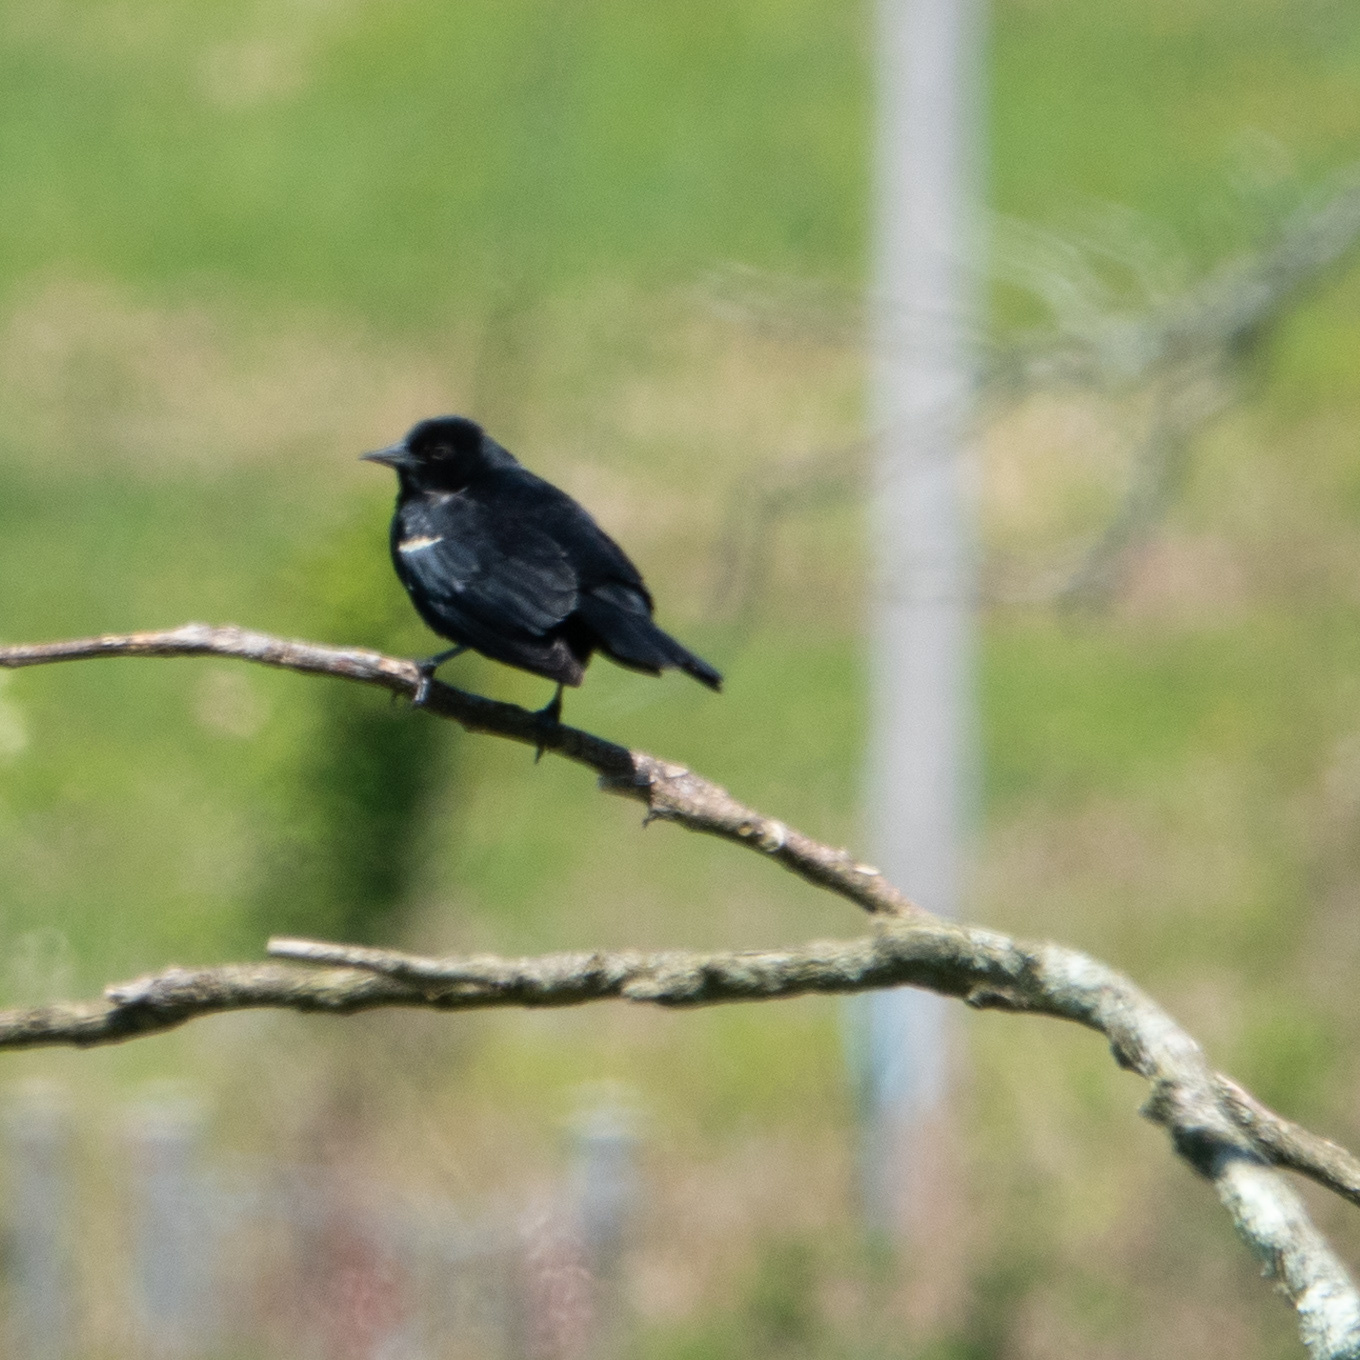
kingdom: Animalia
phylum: Chordata
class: Aves
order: Passeriformes
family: Icteridae
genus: Agelaius
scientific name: Agelaius phoeniceus
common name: Red-winged blackbird
